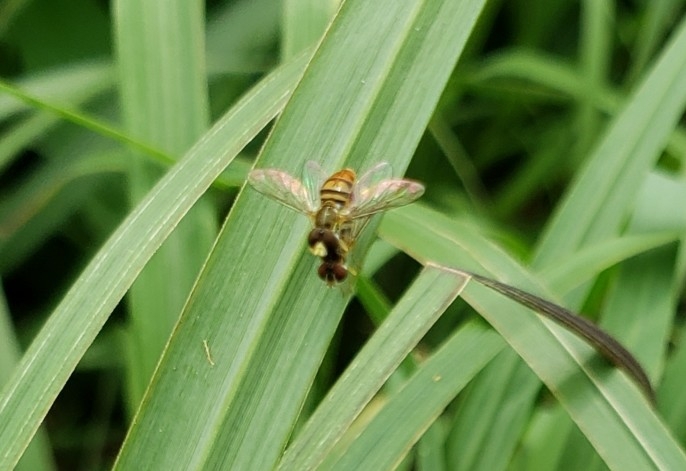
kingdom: Animalia
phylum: Arthropoda
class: Insecta
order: Diptera
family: Syrphidae
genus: Toxomerus
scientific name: Toxomerus marginatus
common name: Syrphid fly
